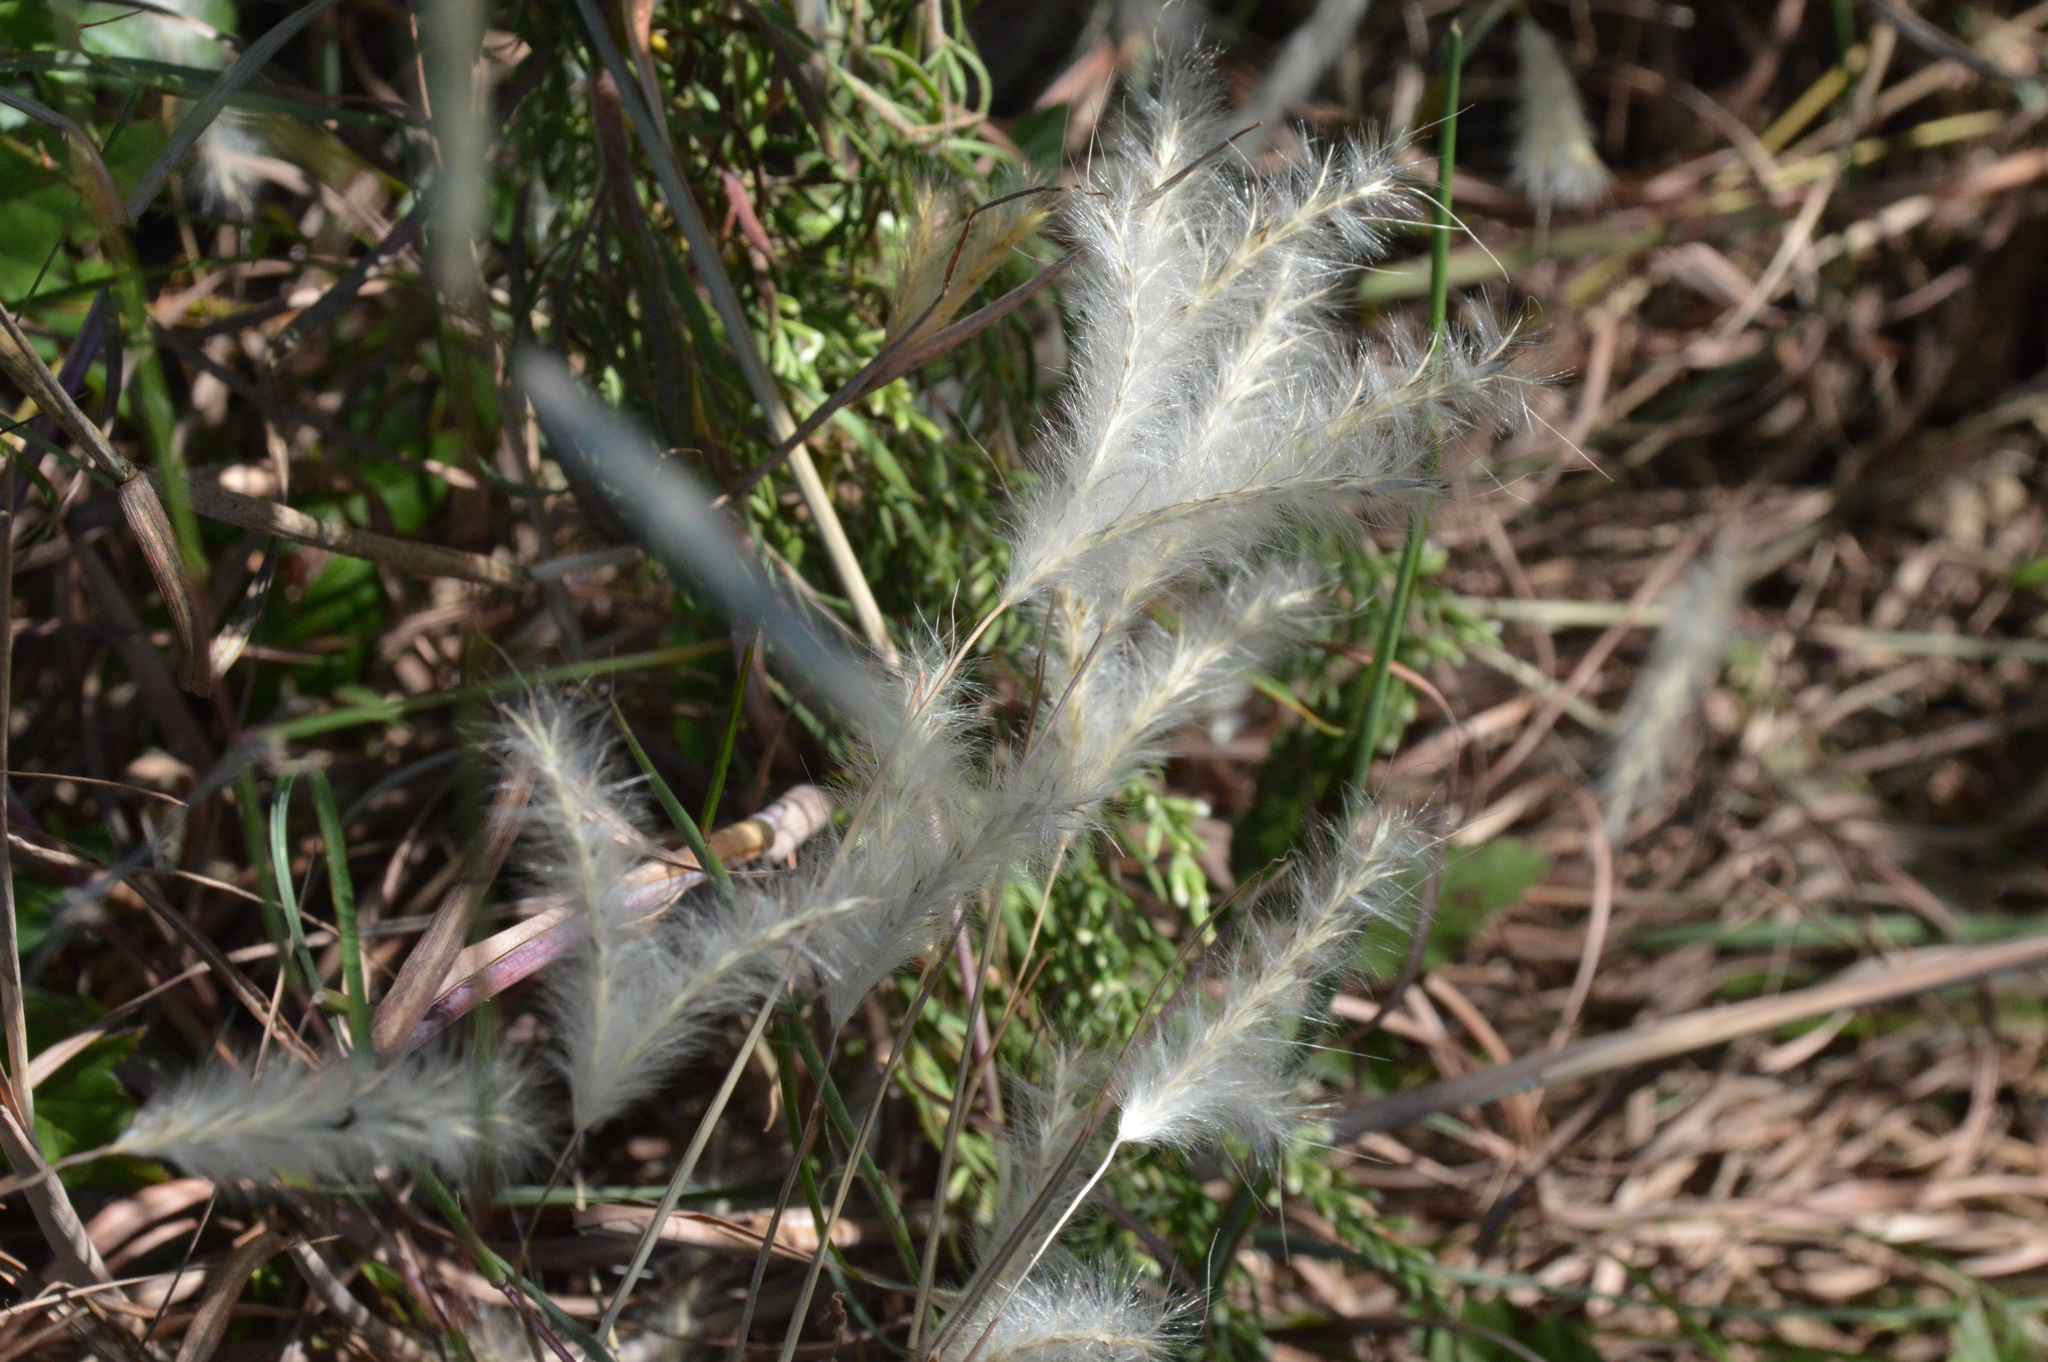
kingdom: Plantae
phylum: Tracheophyta
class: Liliopsida
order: Poales
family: Poaceae
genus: Andropogon
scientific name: Andropogon ternarius
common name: Split bluestem
